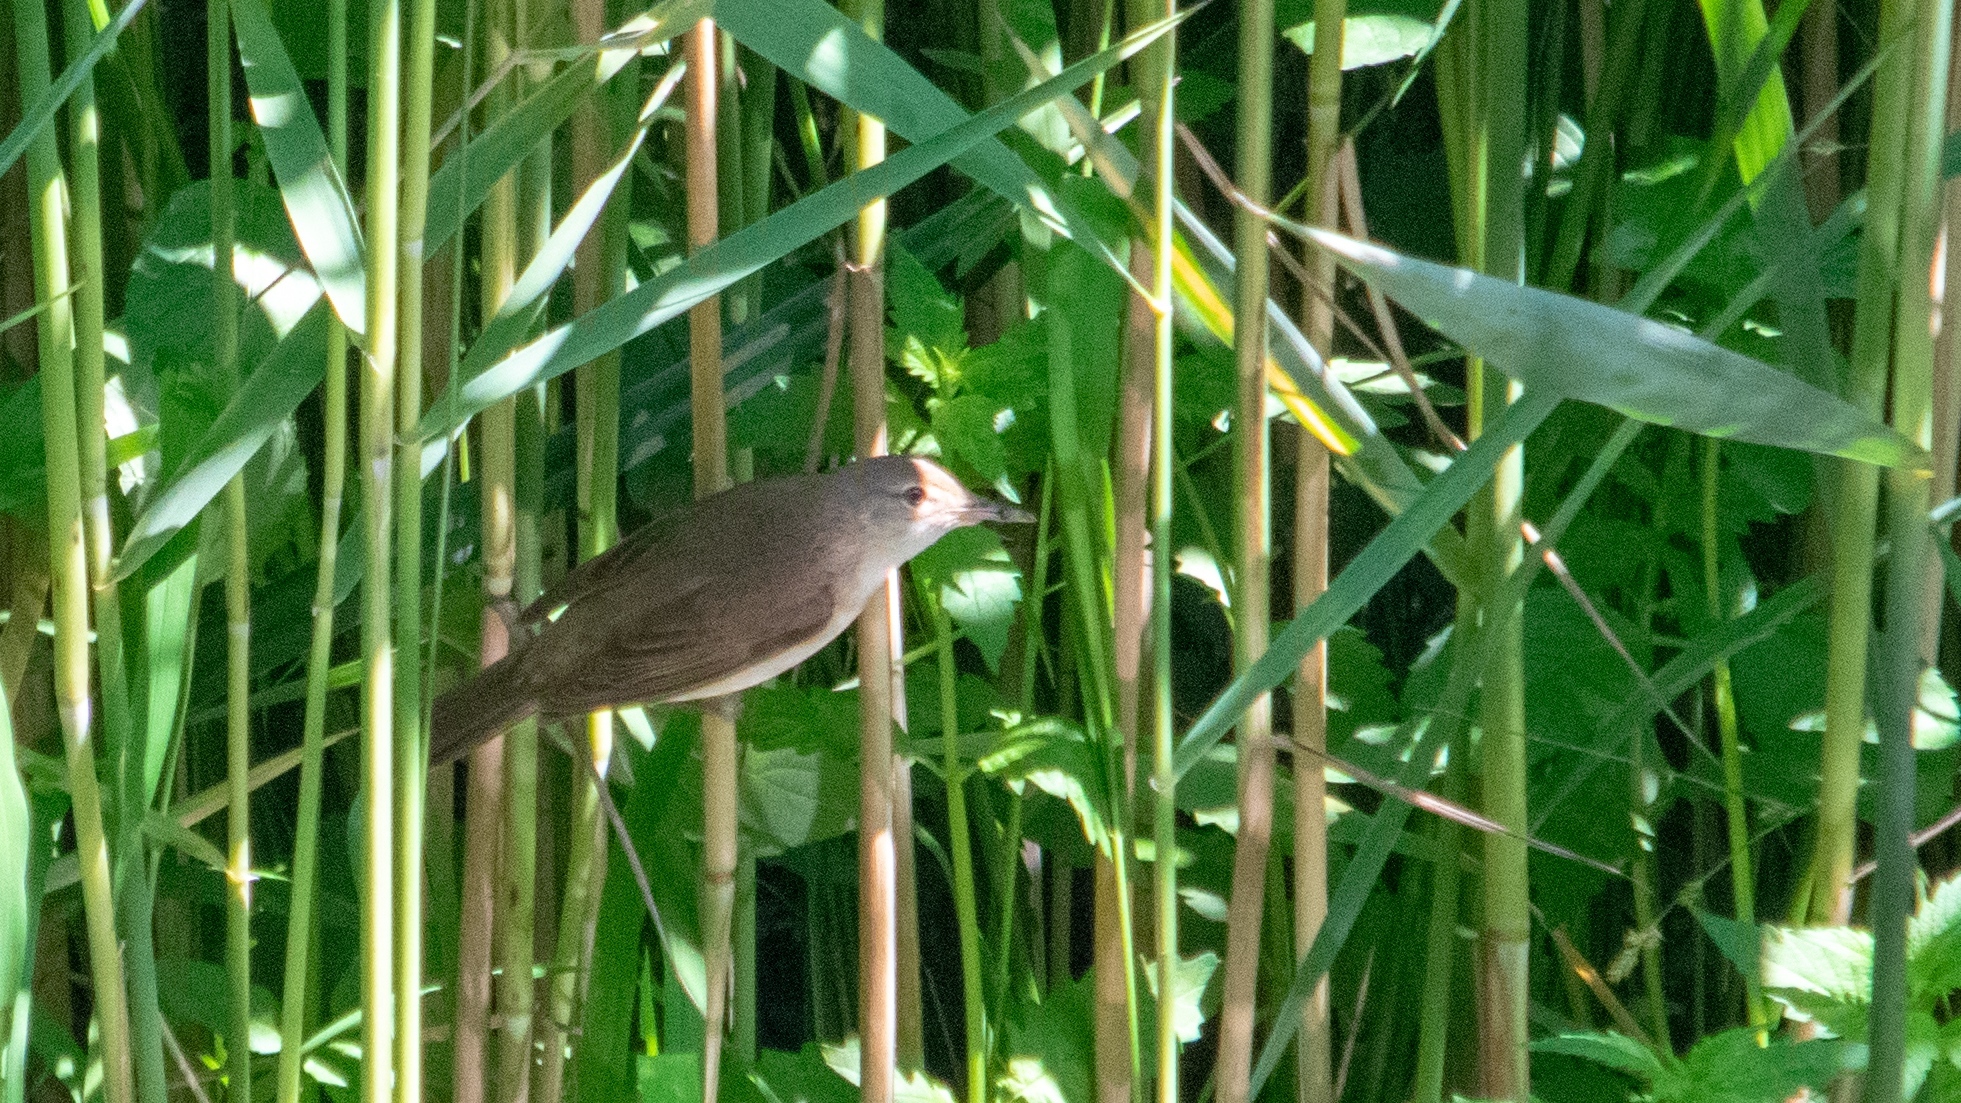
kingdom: Animalia
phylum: Chordata
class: Aves
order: Passeriformes
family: Acrocephalidae
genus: Acrocephalus
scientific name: Acrocephalus scirpaceus
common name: Eurasian reed warbler
